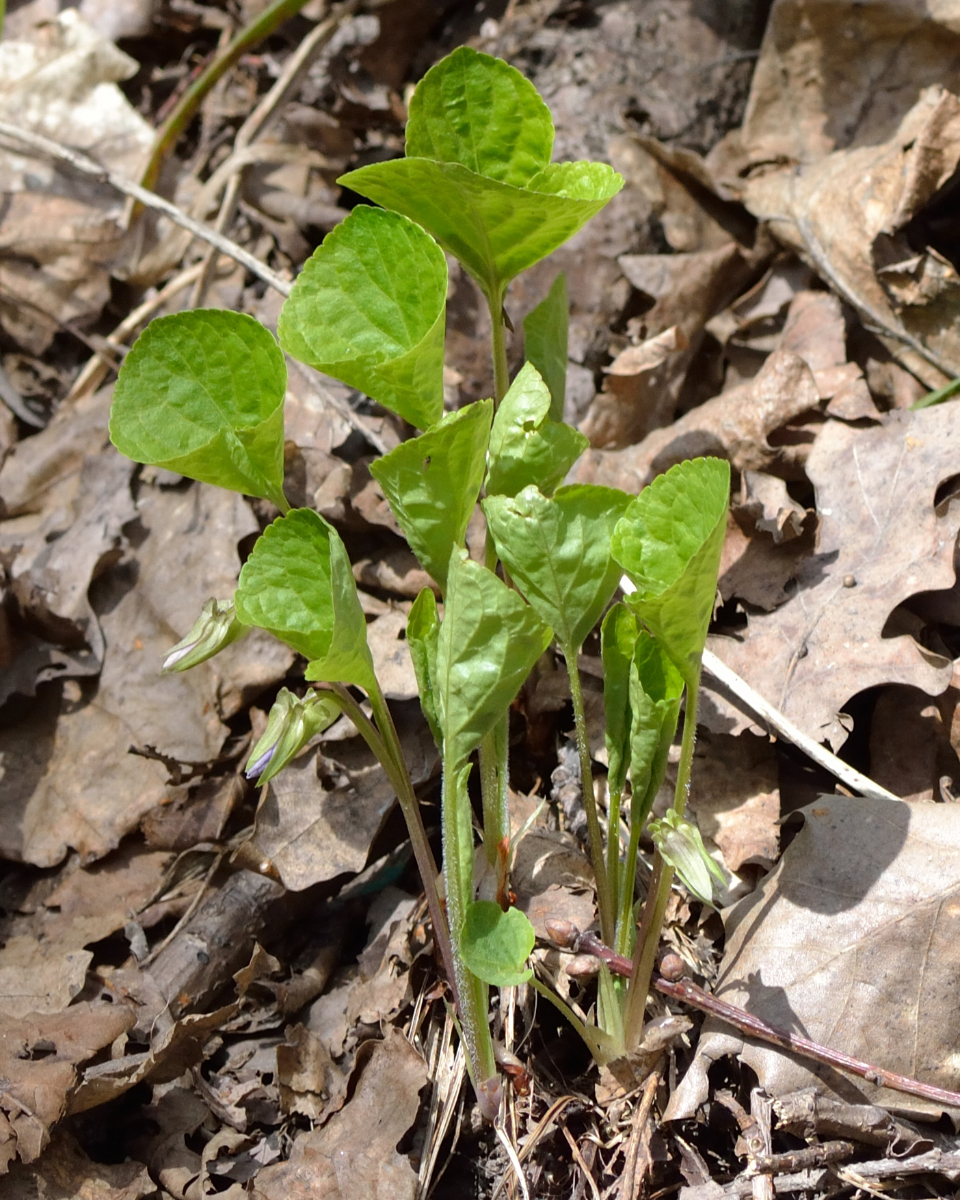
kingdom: Plantae
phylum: Tracheophyta
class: Magnoliopsida
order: Malpighiales
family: Violaceae
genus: Viola
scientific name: Viola mirabilis
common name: Wonder violet
